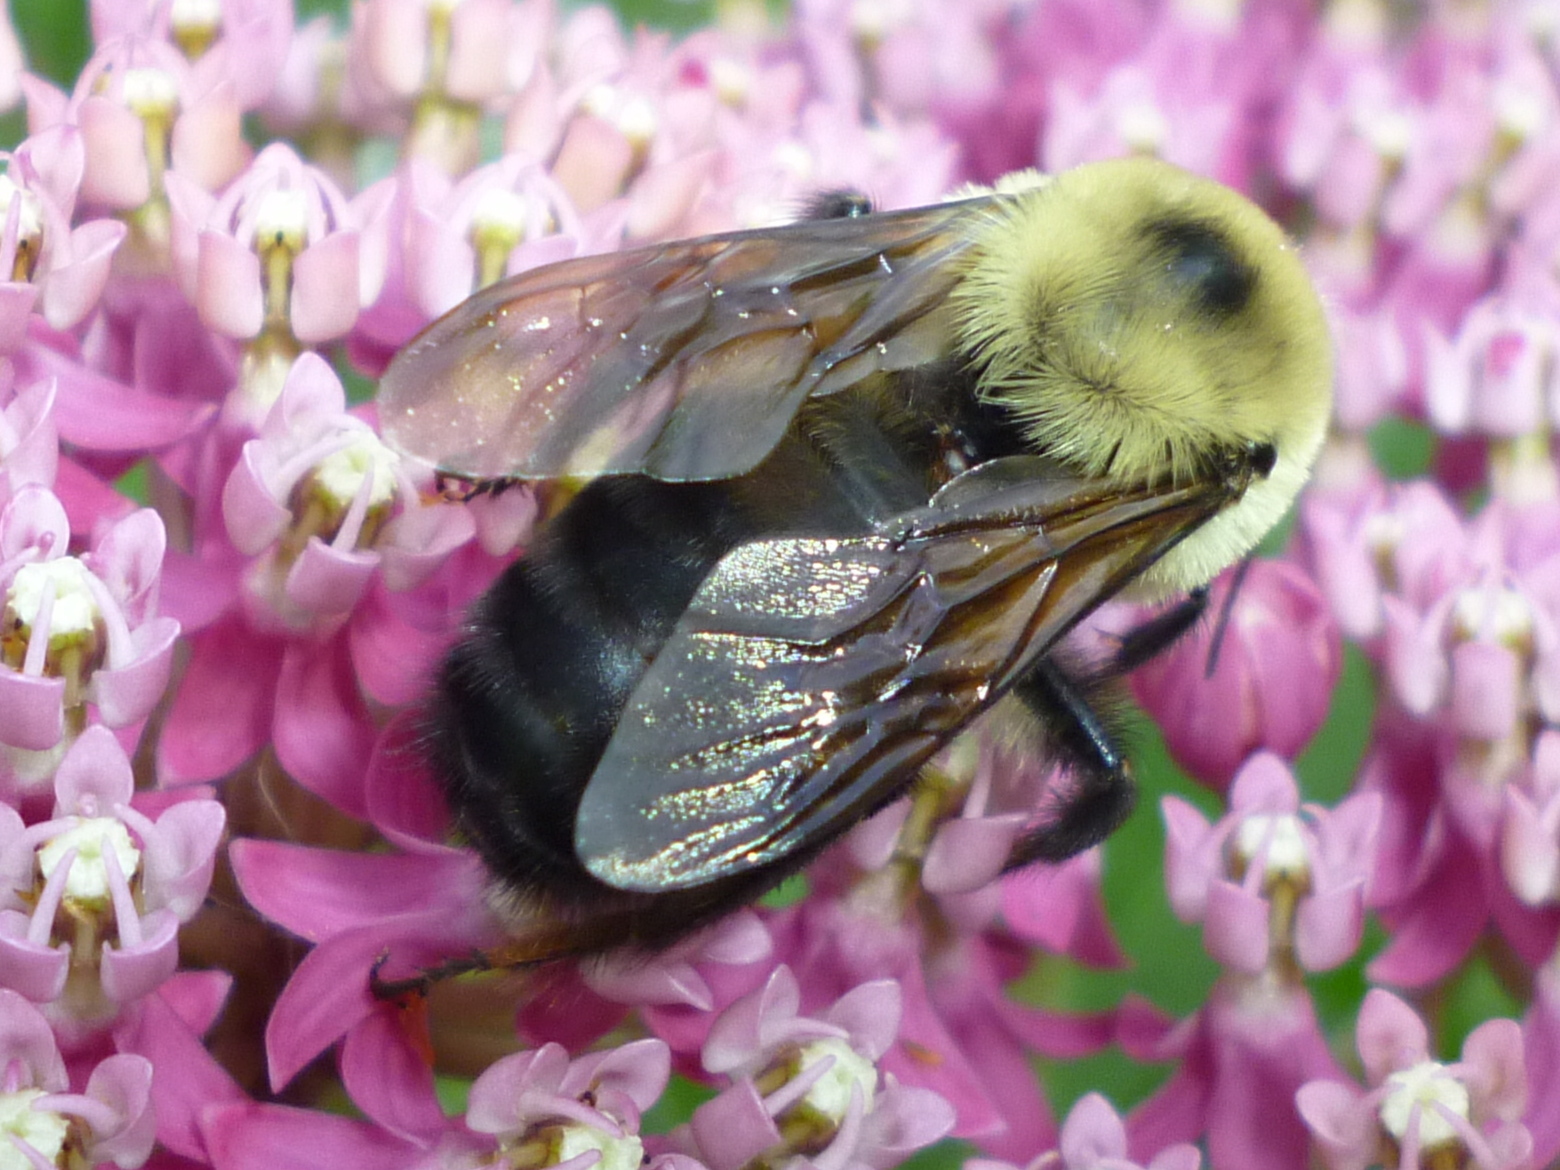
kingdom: Animalia
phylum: Arthropoda
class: Insecta
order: Hymenoptera
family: Apidae
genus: Bombus
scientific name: Bombus griseocollis
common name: Brown-belted bumble bee
